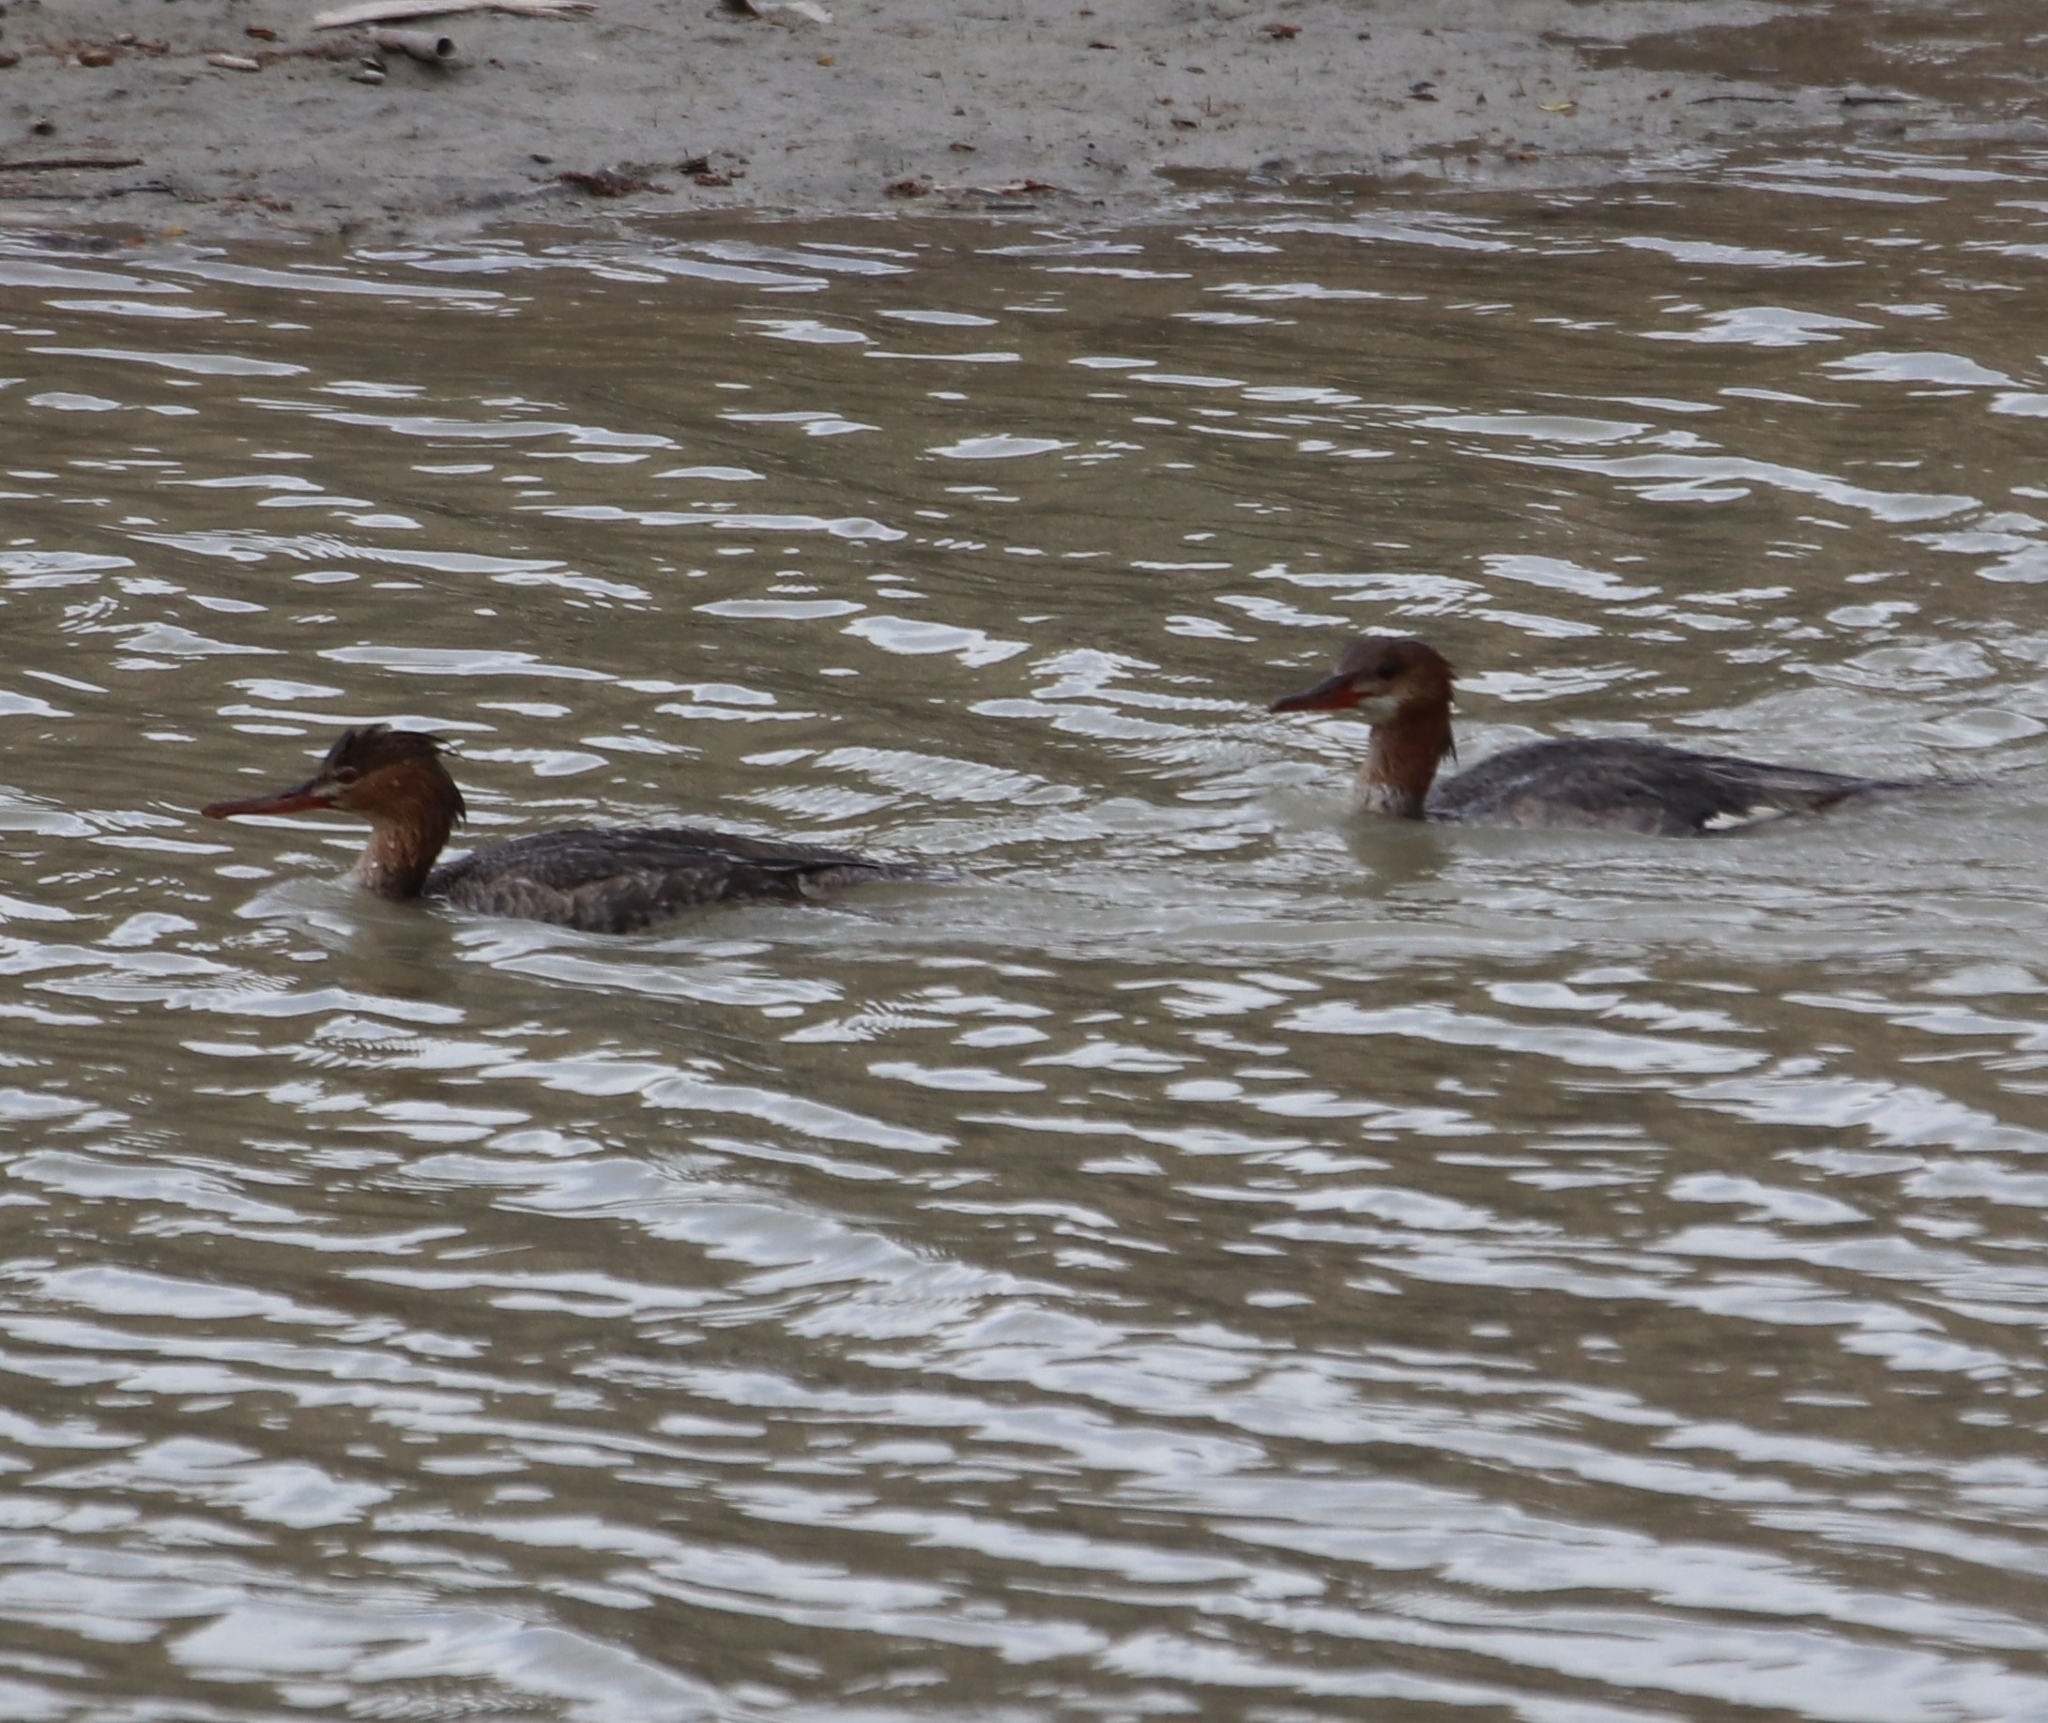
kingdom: Animalia
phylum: Chordata
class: Aves
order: Anseriformes
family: Anatidae
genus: Mergus
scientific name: Mergus merganser
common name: Common merganser
